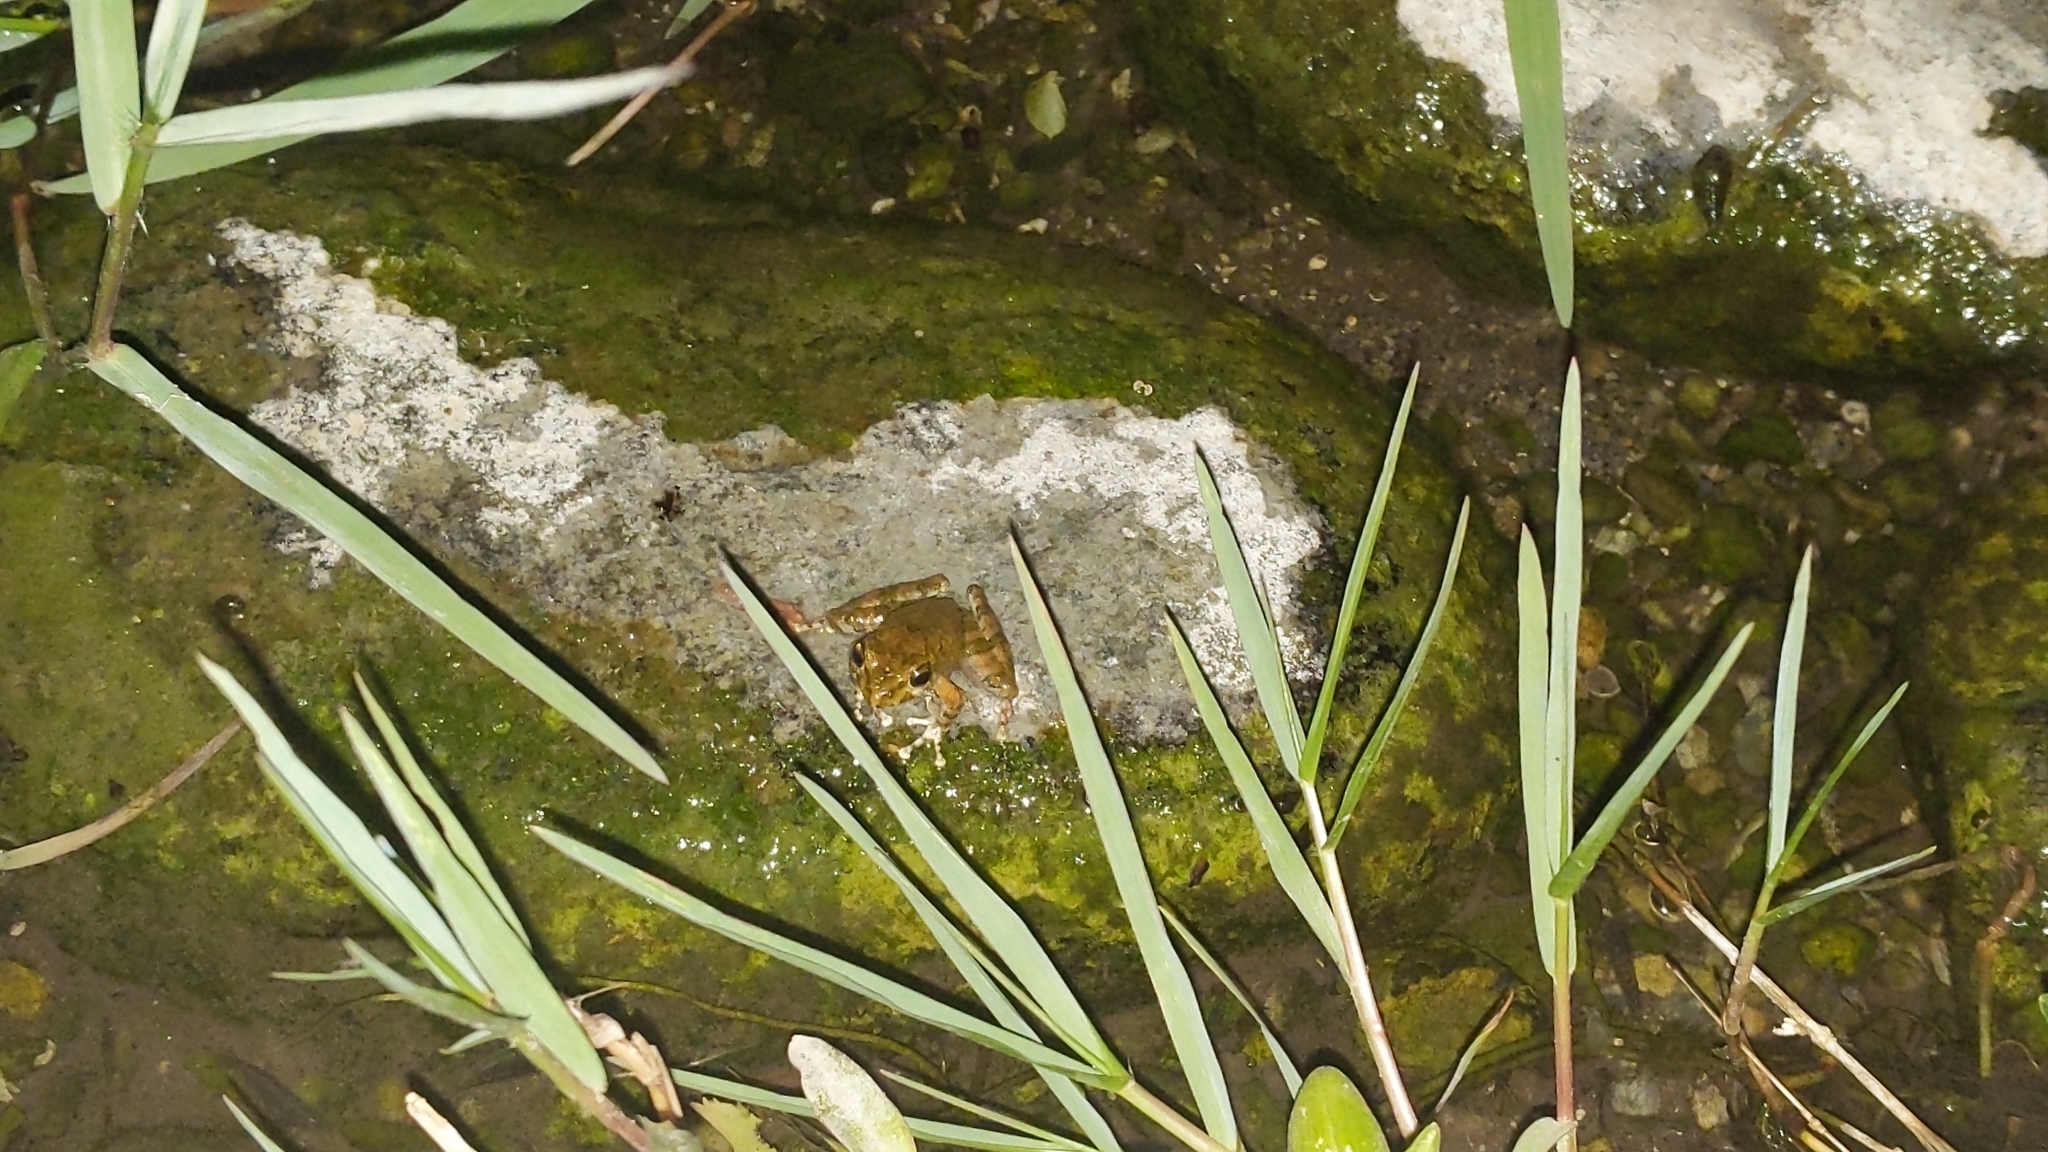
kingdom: Animalia
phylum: Chordata
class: Amphibia
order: Anura
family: Rhacophoridae
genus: Buergeria
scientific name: Buergeria otai
